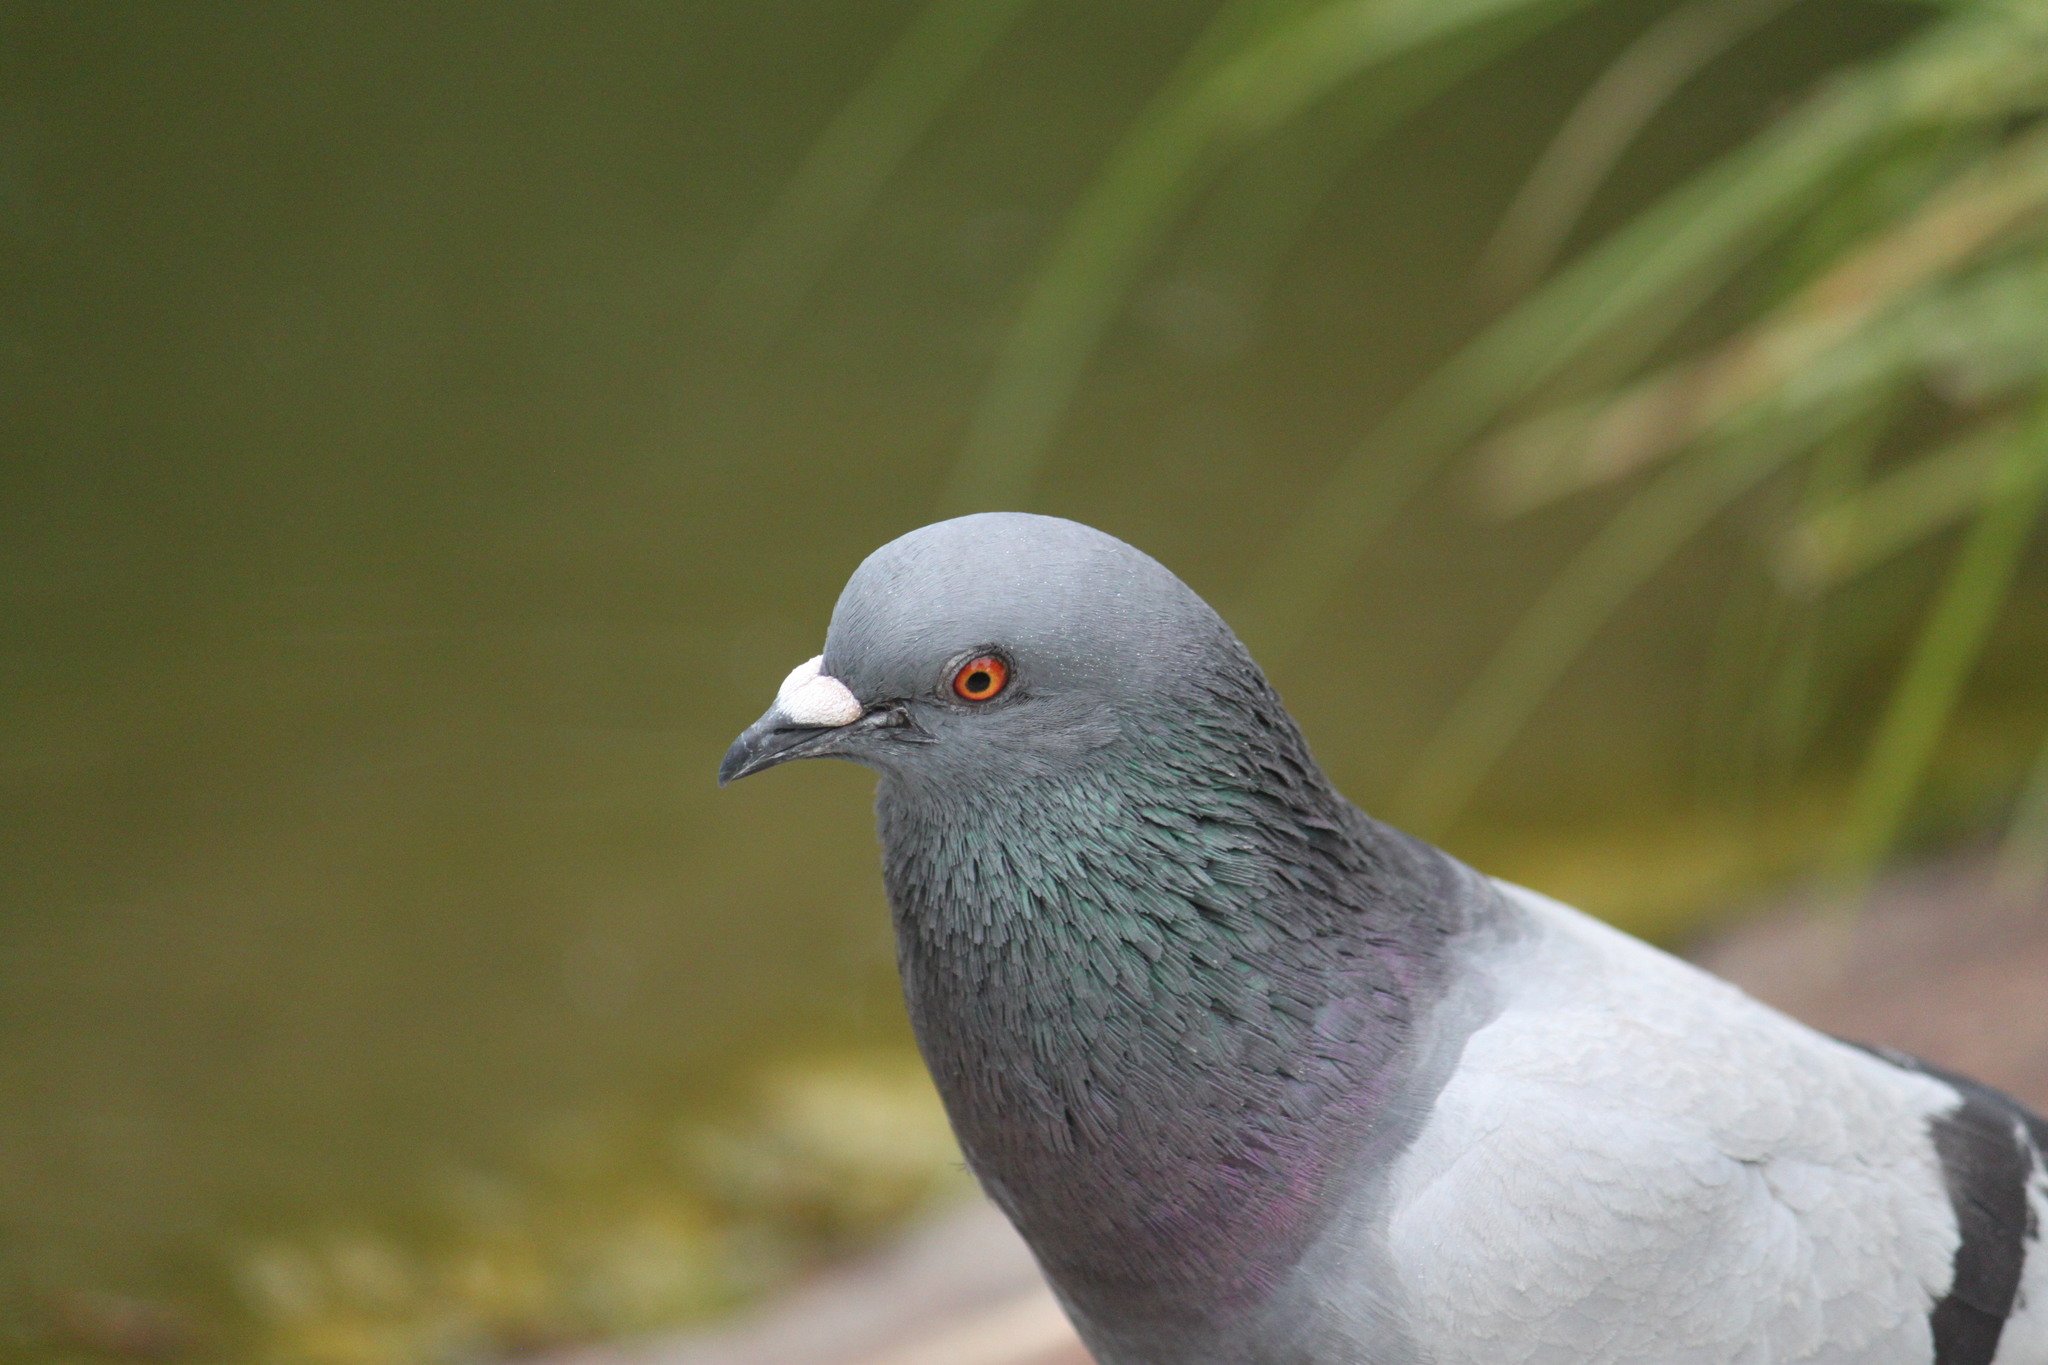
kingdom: Animalia
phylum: Chordata
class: Aves
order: Columbiformes
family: Columbidae
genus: Columba
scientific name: Columba livia
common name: Rock pigeon
